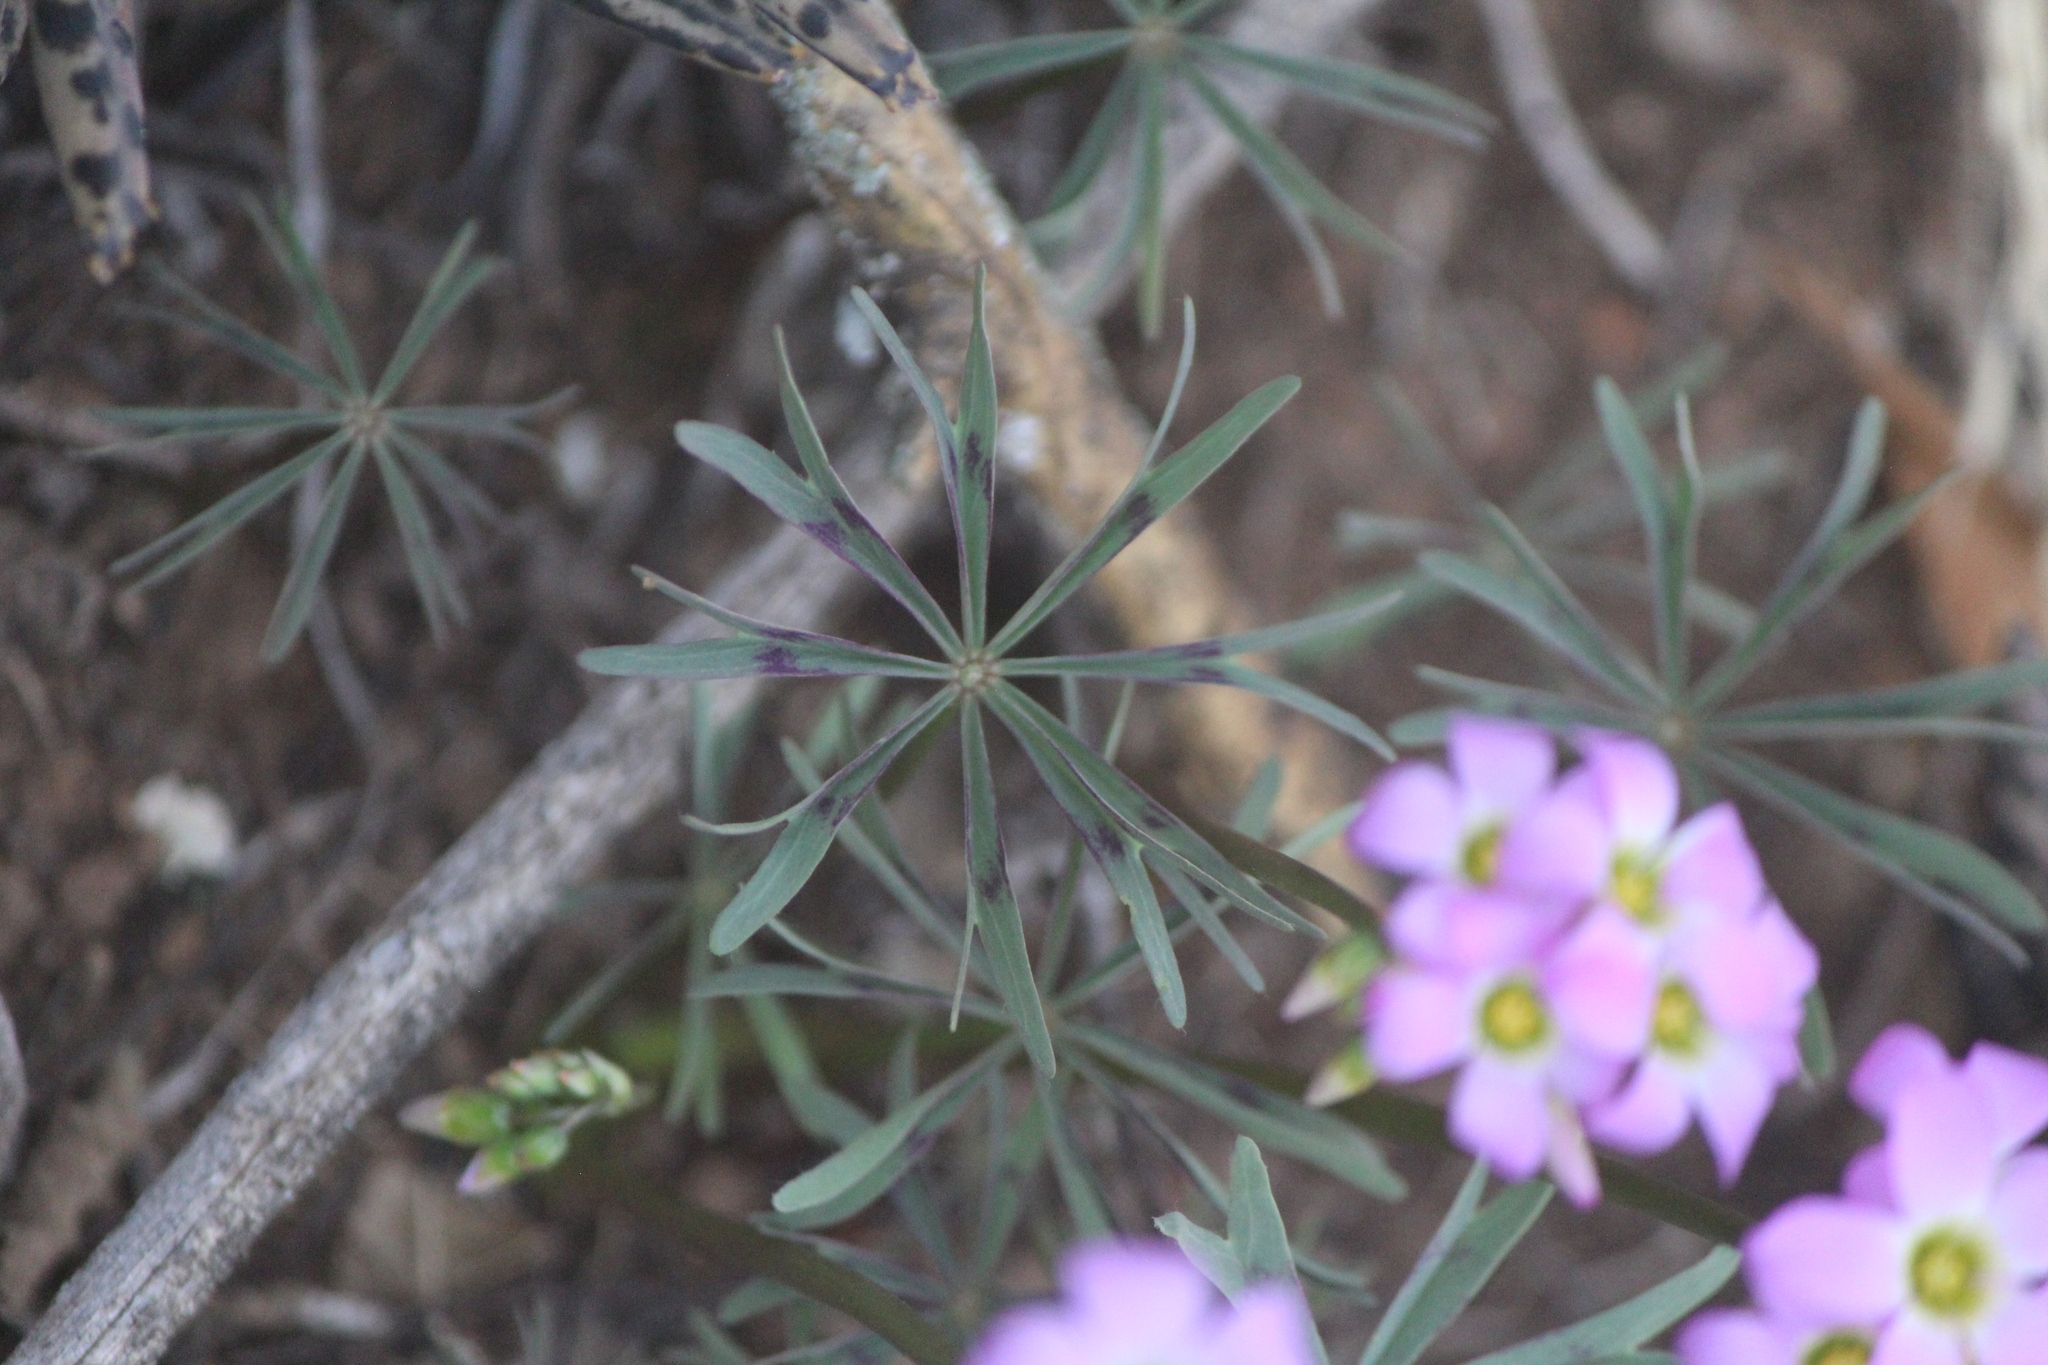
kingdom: Plantae
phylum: Tracheophyta
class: Magnoliopsida
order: Oxalidales
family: Oxalidaceae
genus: Oxalis
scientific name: Oxalis decaphylla
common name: Ten-leaved pink-sorrel
